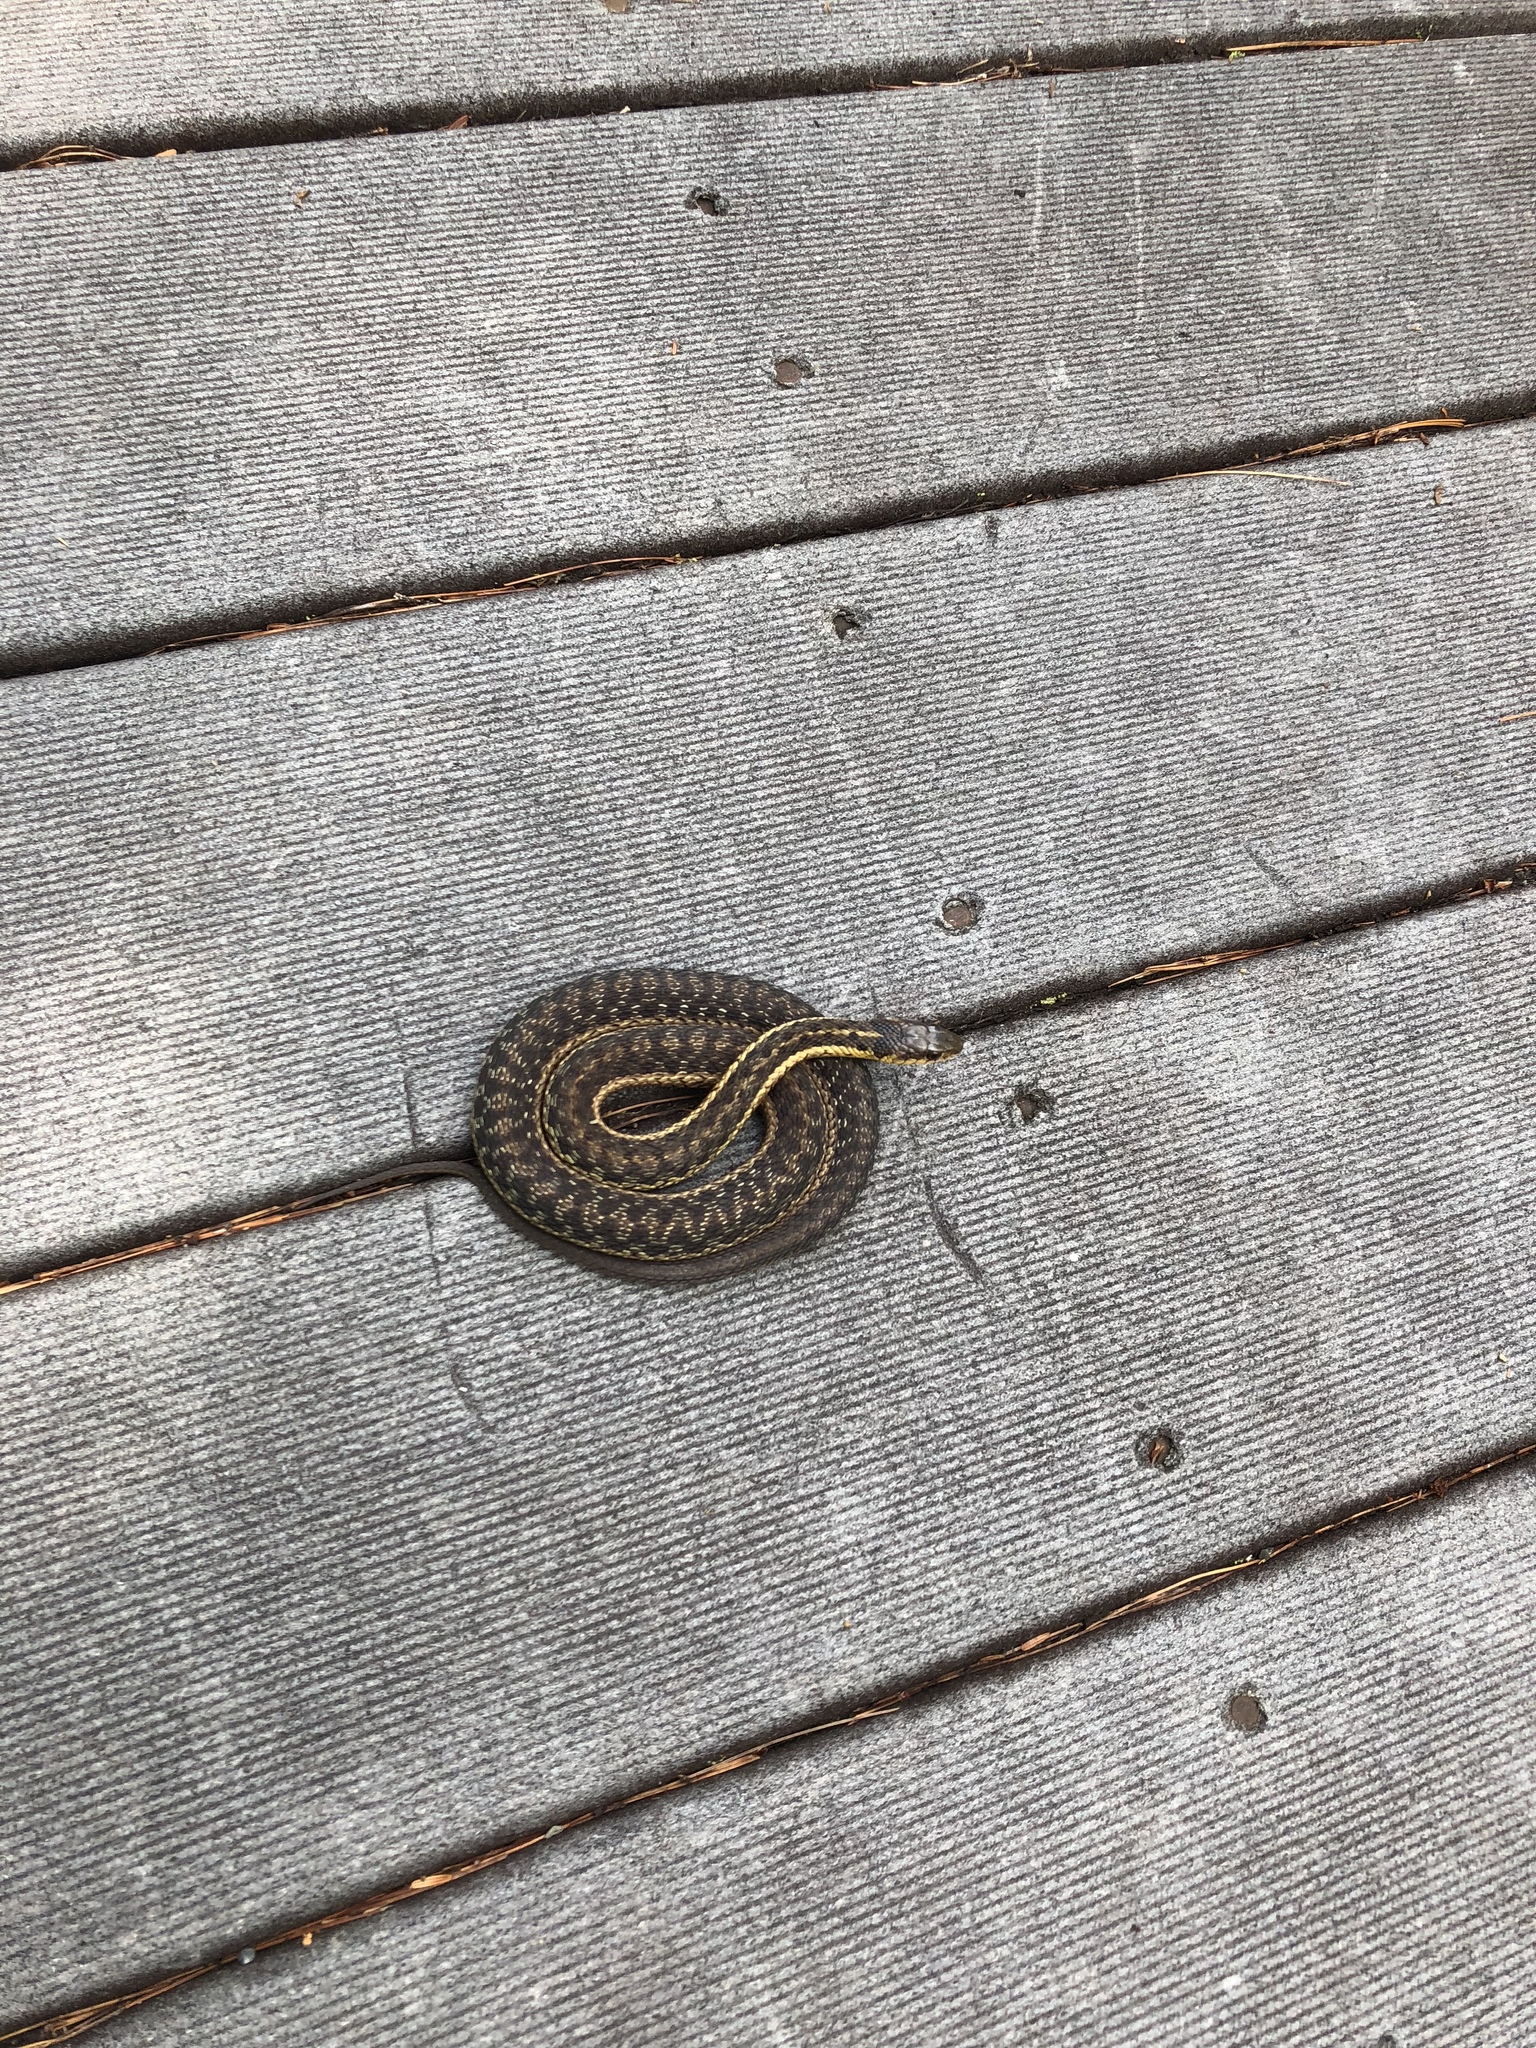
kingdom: Animalia
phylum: Chordata
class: Squamata
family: Colubridae
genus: Thamnophis
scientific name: Thamnophis sirtalis
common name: Common garter snake
